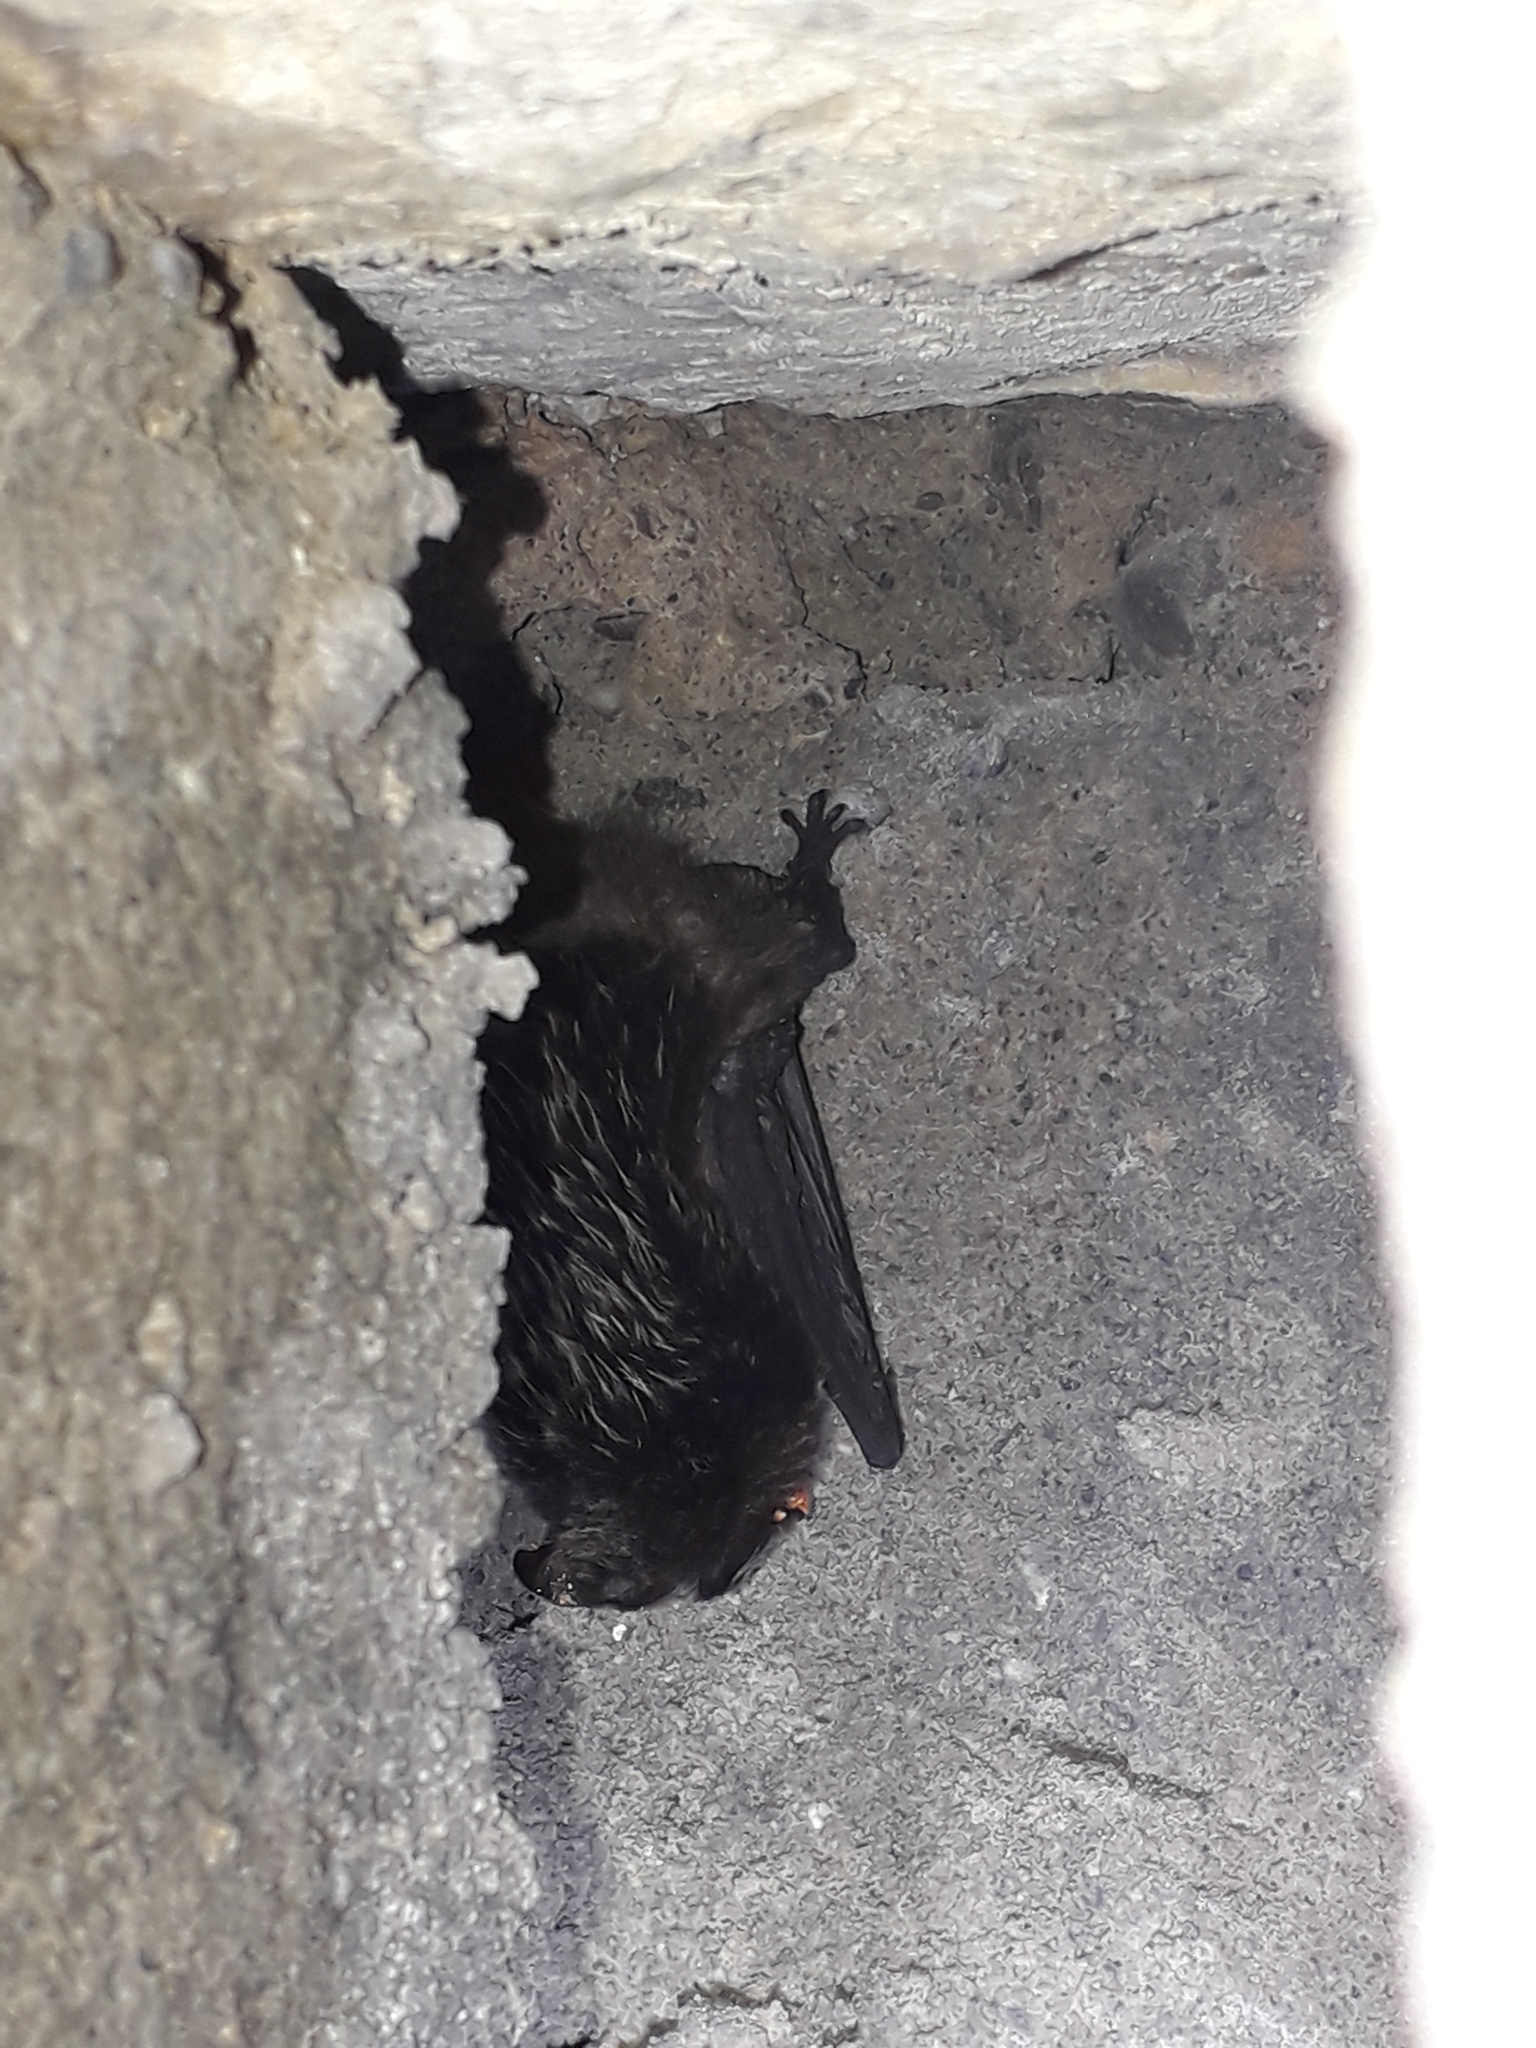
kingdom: Animalia
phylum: Chordata
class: Mammalia
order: Chiroptera
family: Vespertilionidae
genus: Barbastella
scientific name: Barbastella barbastellus
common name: Western barbastelle
